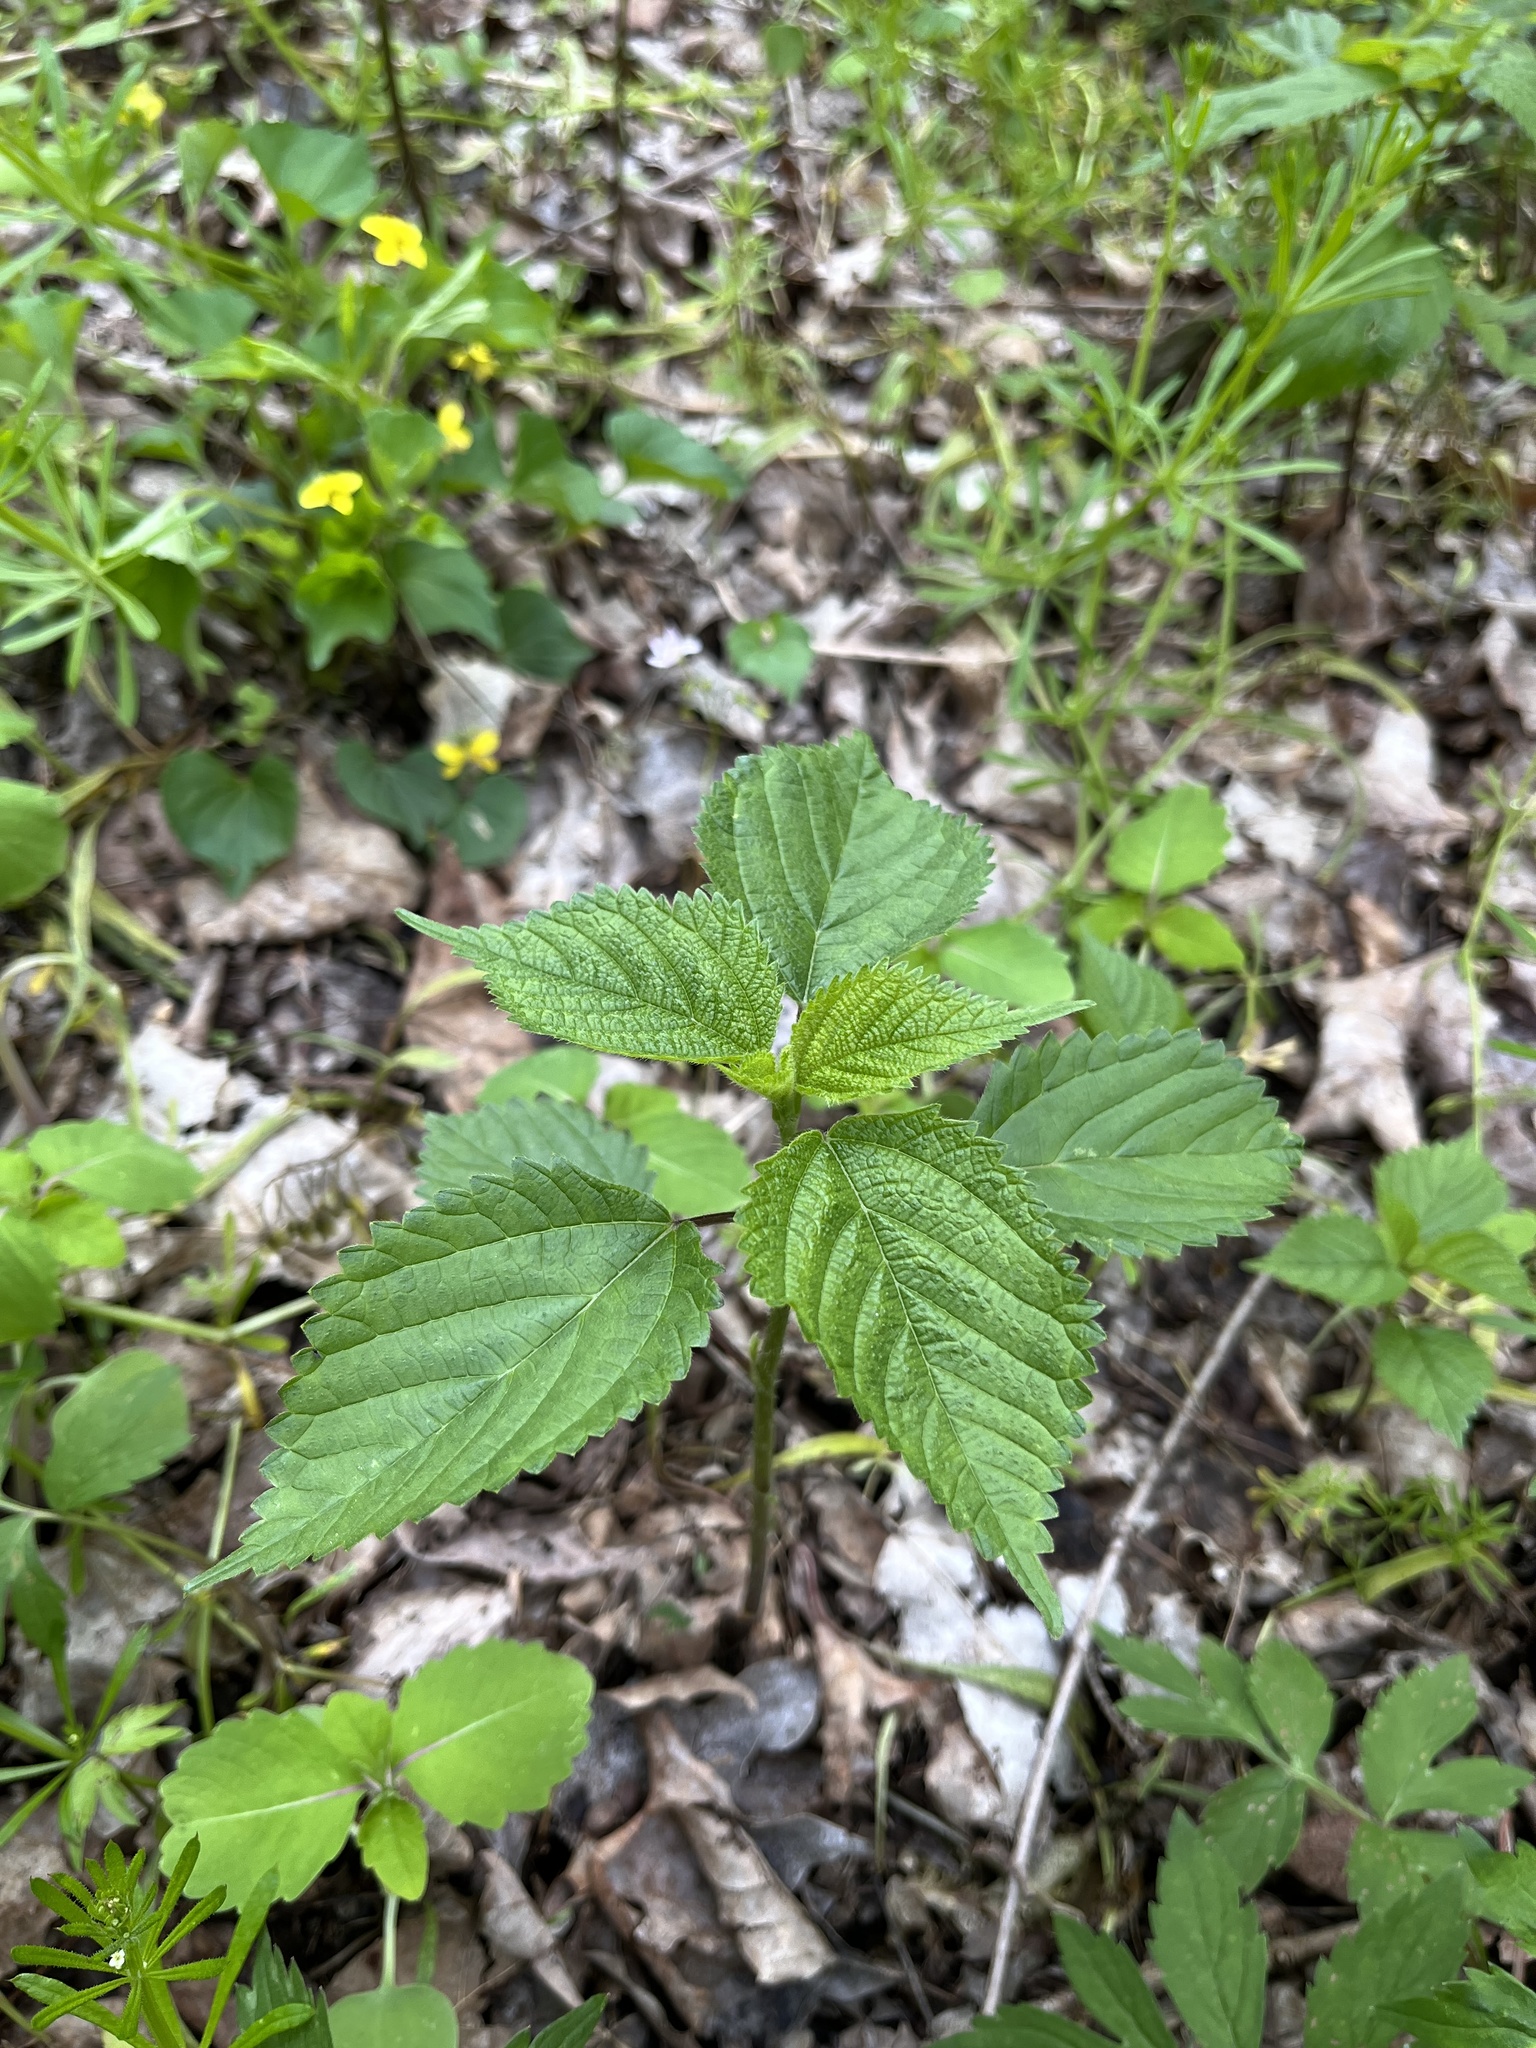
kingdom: Plantae
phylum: Tracheophyta
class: Magnoliopsida
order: Rosales
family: Urticaceae
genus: Laportea
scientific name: Laportea canadensis
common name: Canada nettle
